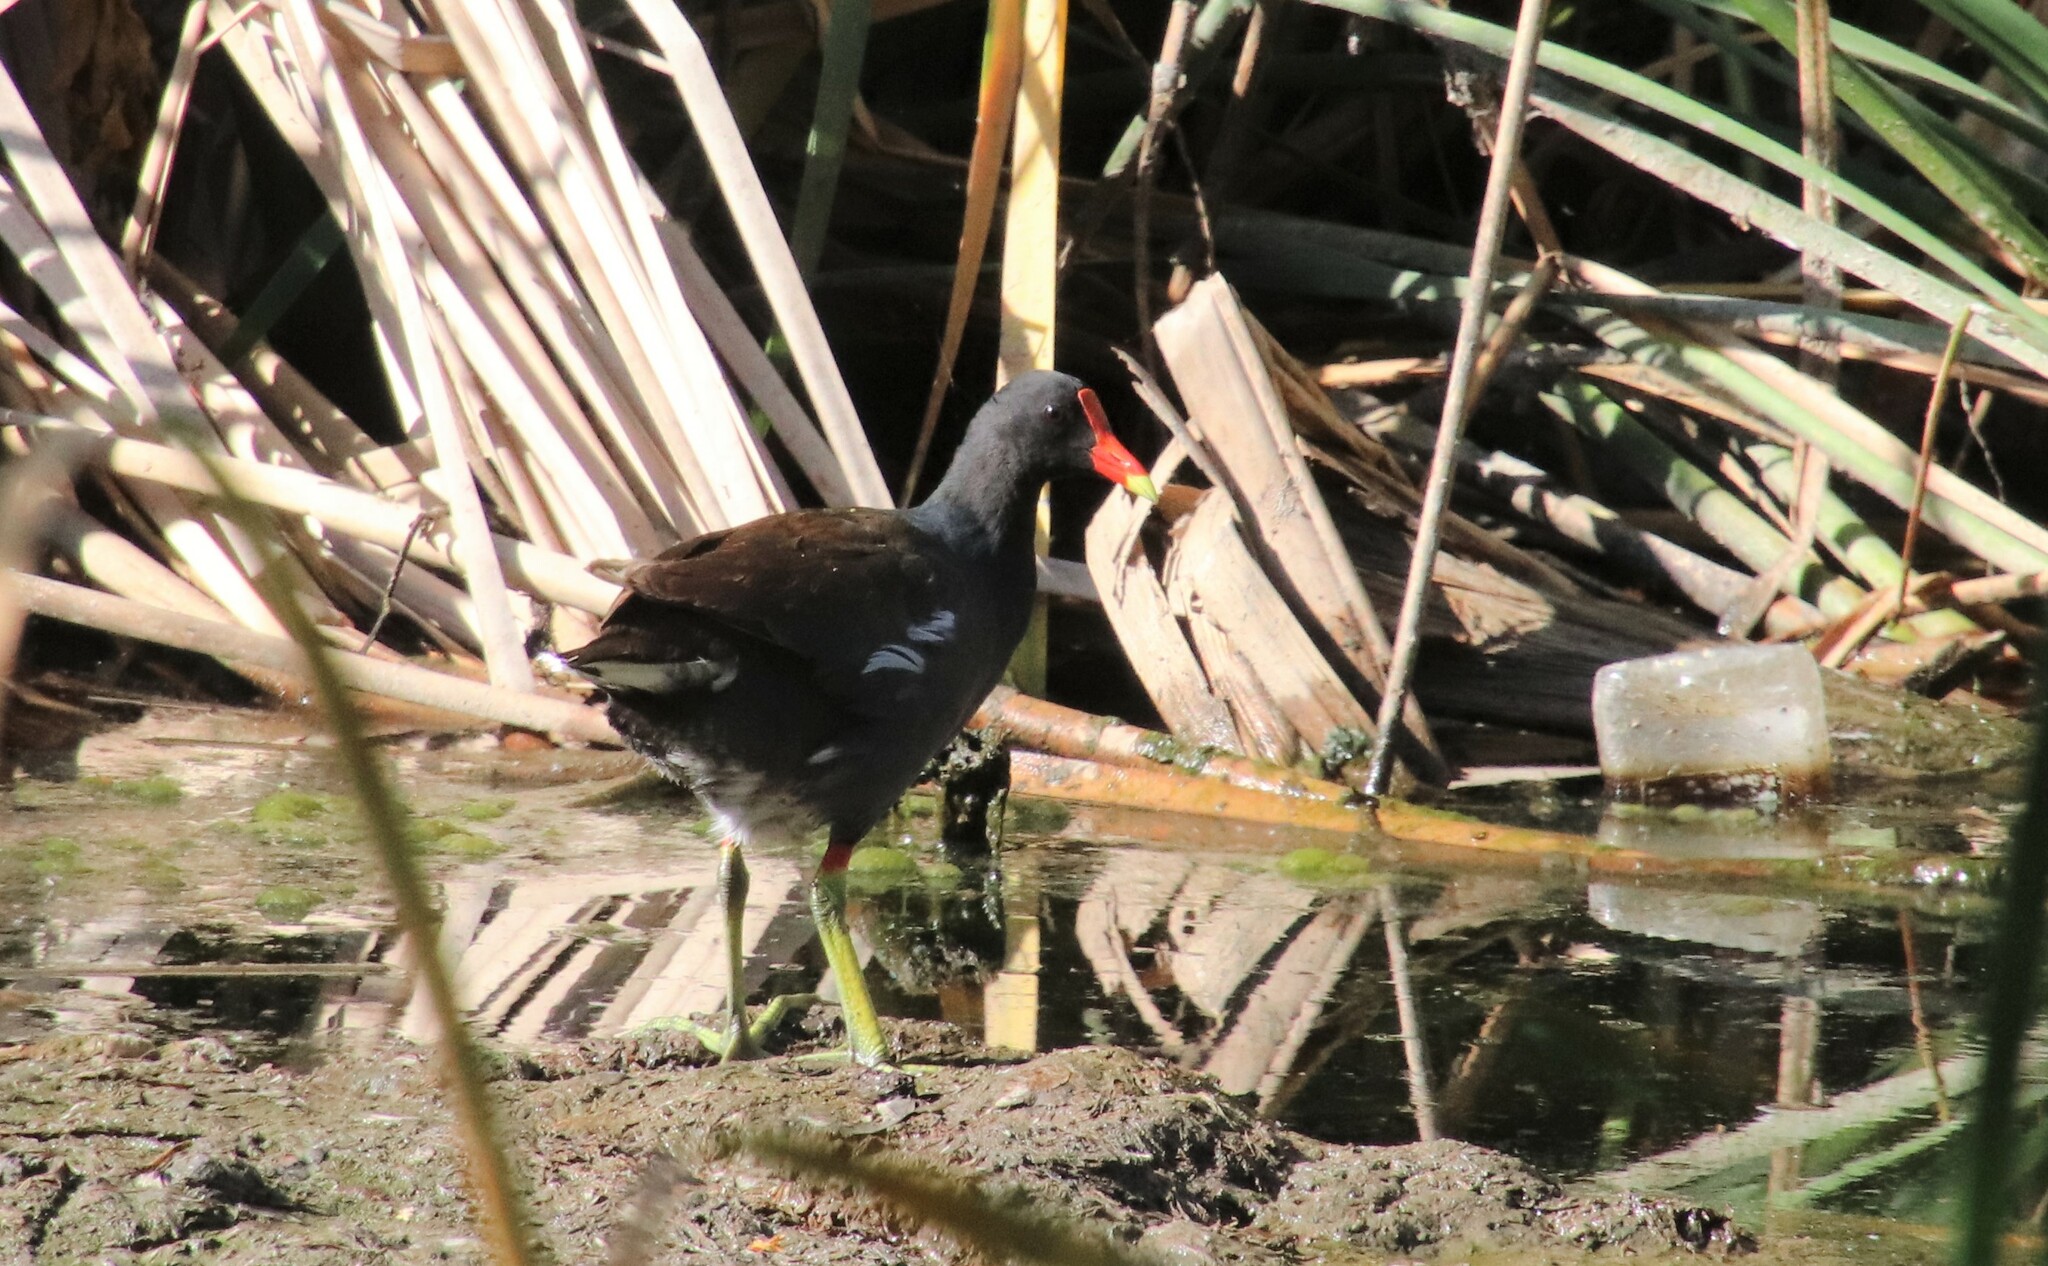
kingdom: Animalia
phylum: Chordata
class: Aves
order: Gruiformes
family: Rallidae
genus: Gallinula
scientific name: Gallinula chloropus
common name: Common moorhen
